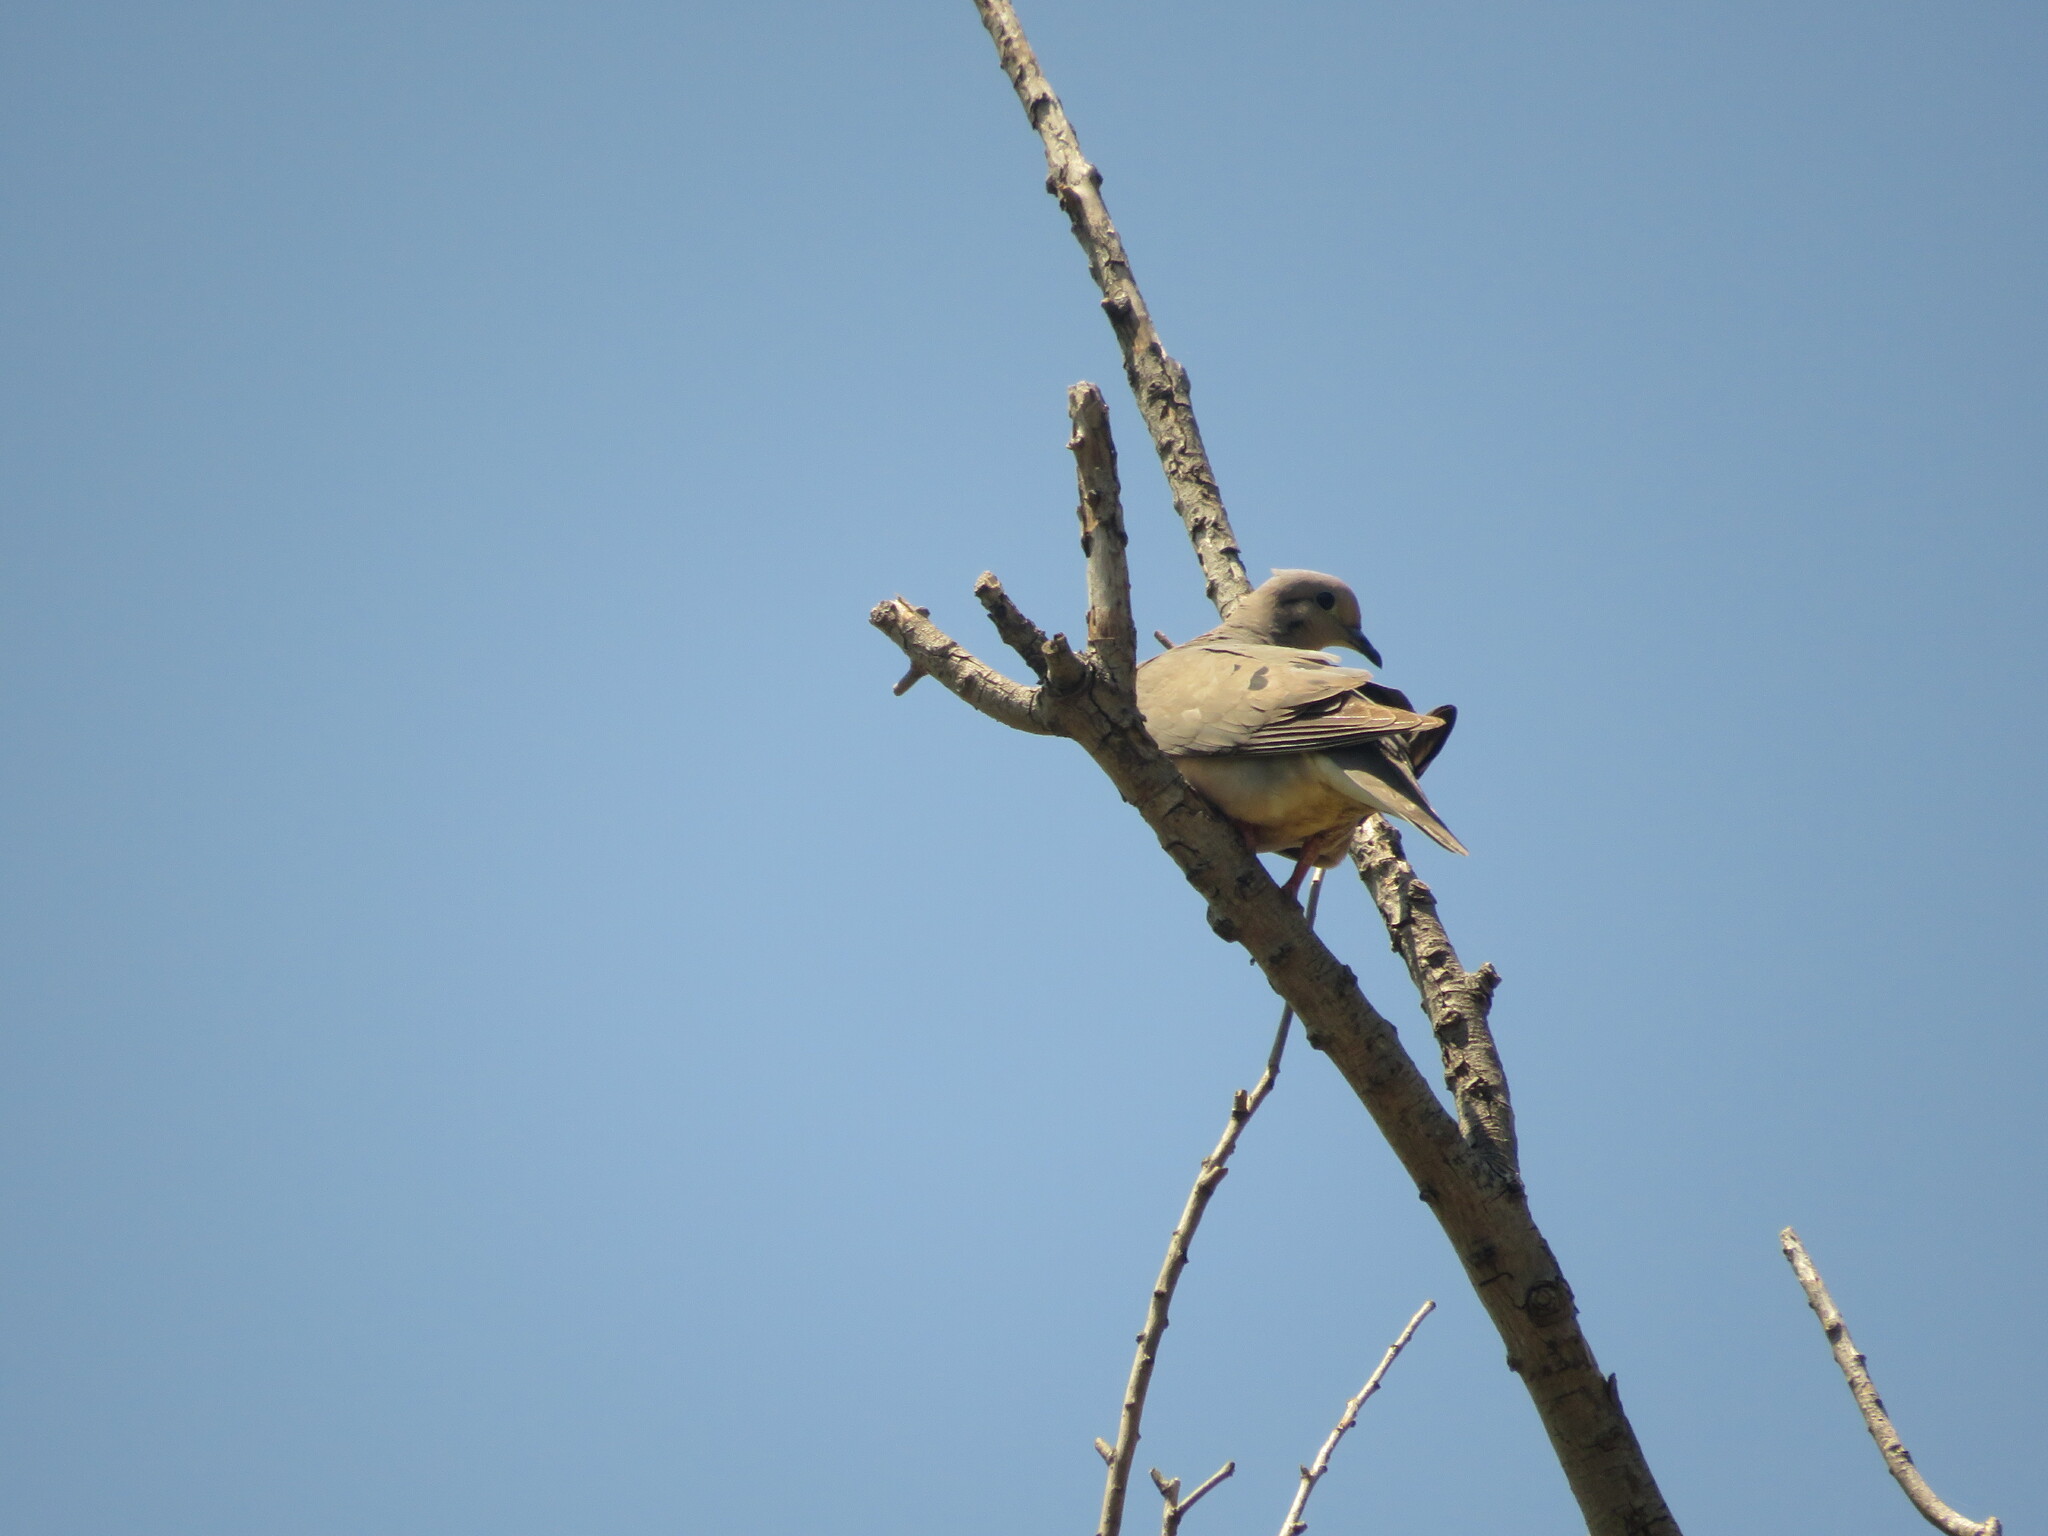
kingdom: Animalia
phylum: Chordata
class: Aves
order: Columbiformes
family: Columbidae
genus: Zenaida
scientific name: Zenaida auriculata
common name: Eared dove
